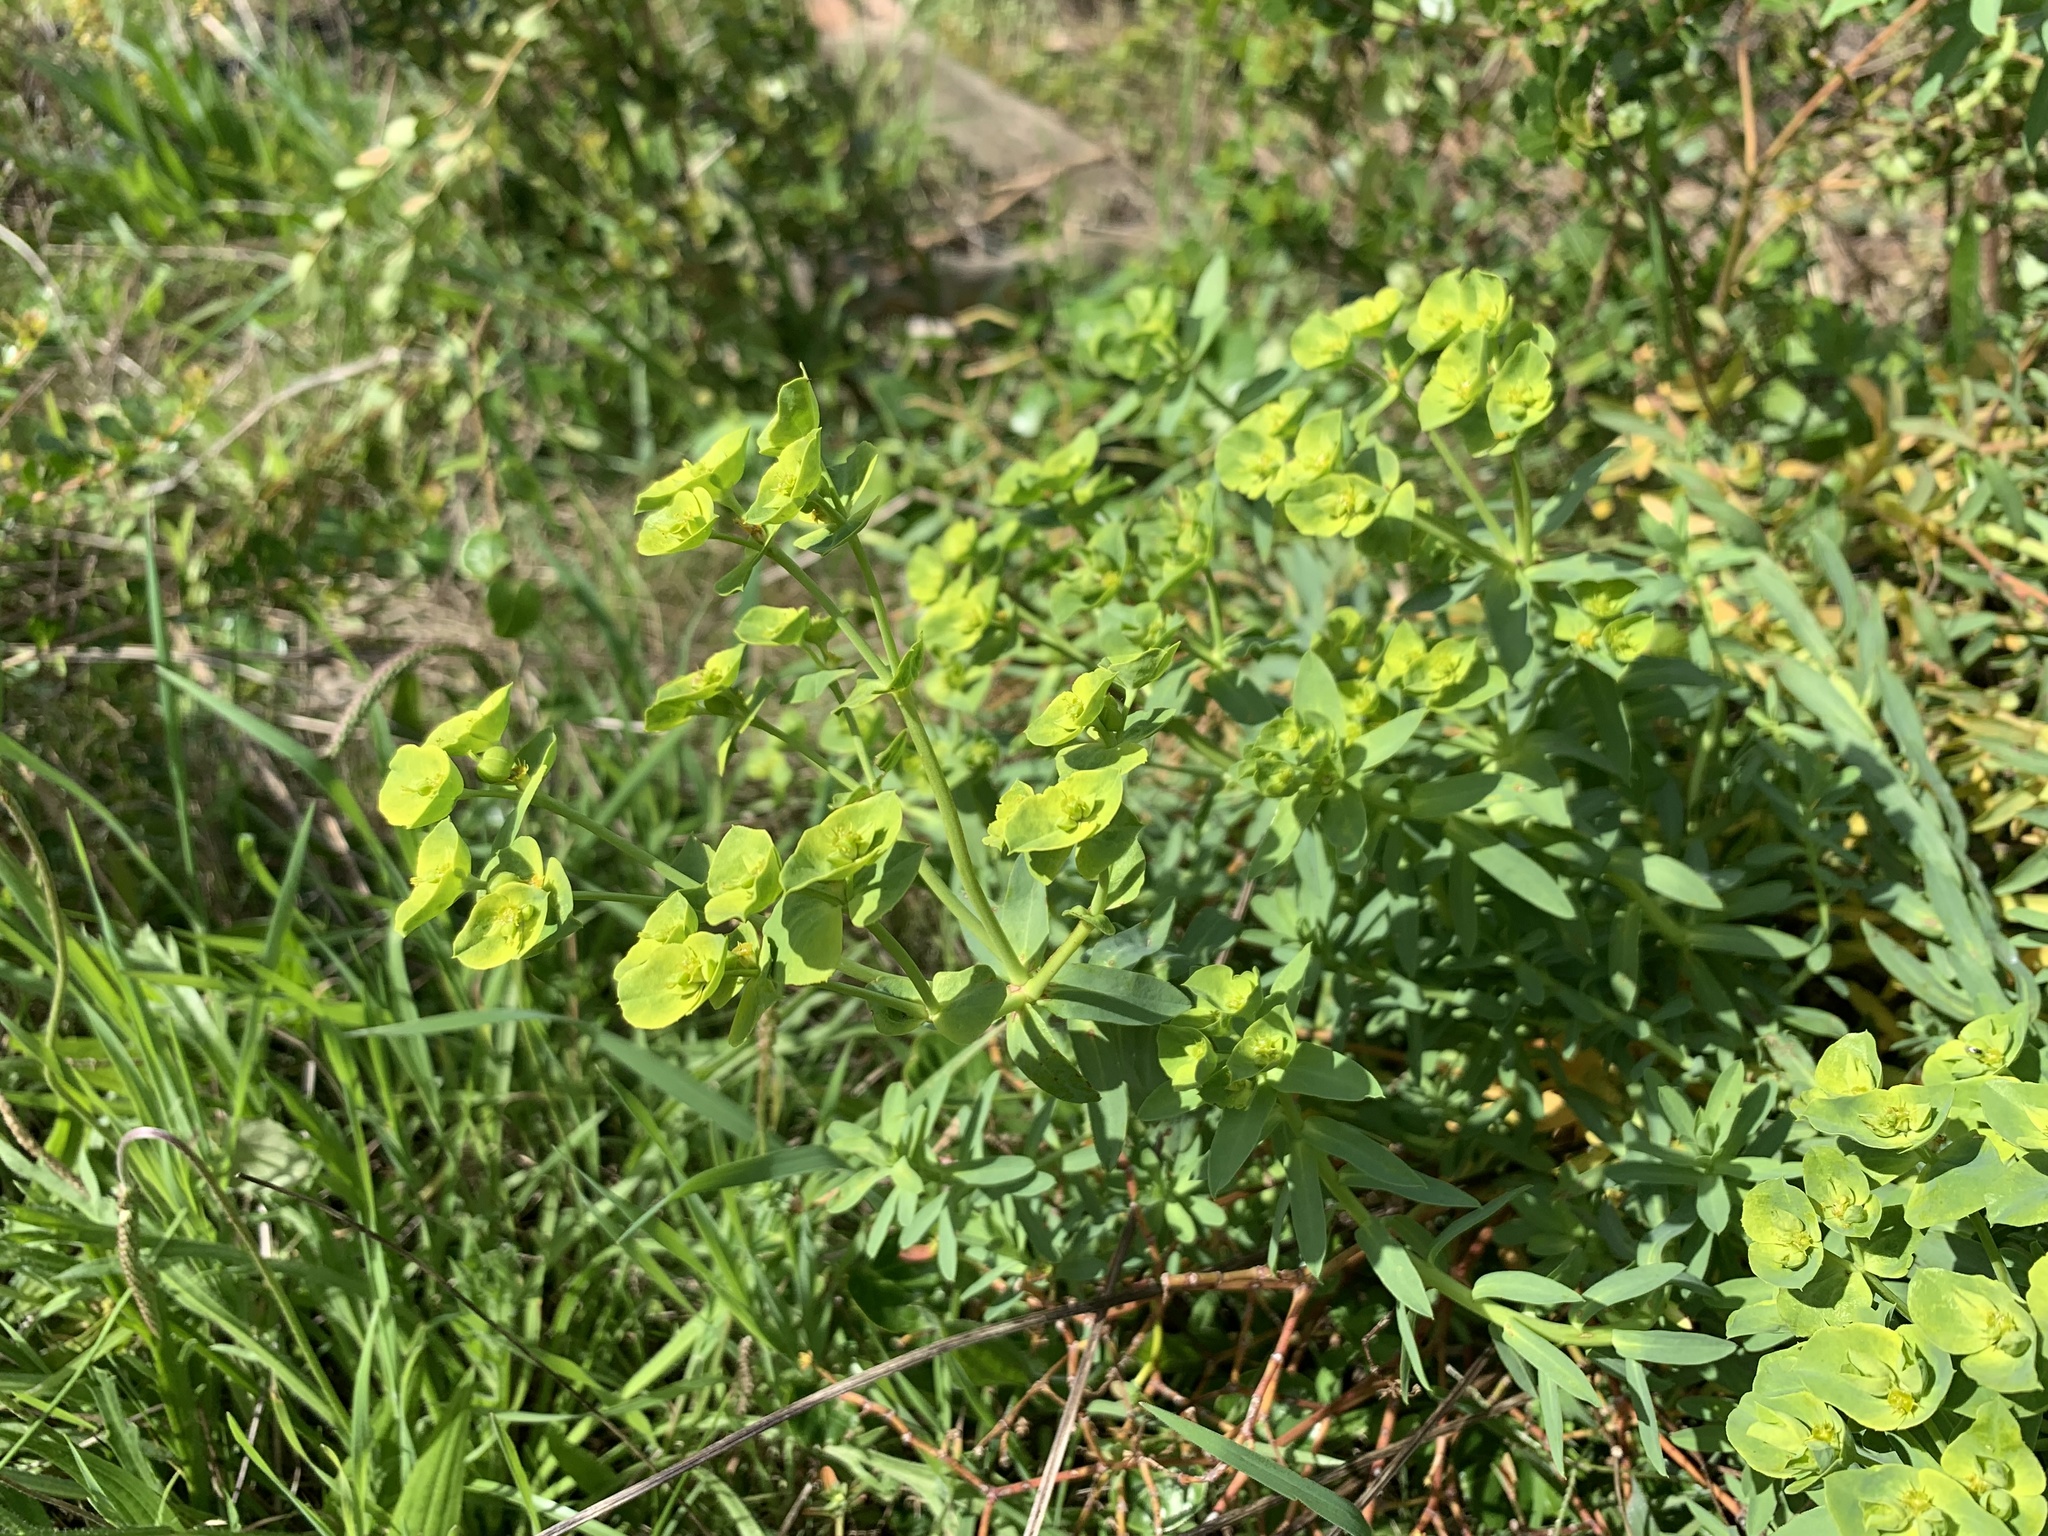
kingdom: Plantae
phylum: Tracheophyta
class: Magnoliopsida
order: Malpighiales
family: Euphorbiaceae
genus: Euphorbia
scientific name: Euphorbia terracina
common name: Geraldton carnation weed
